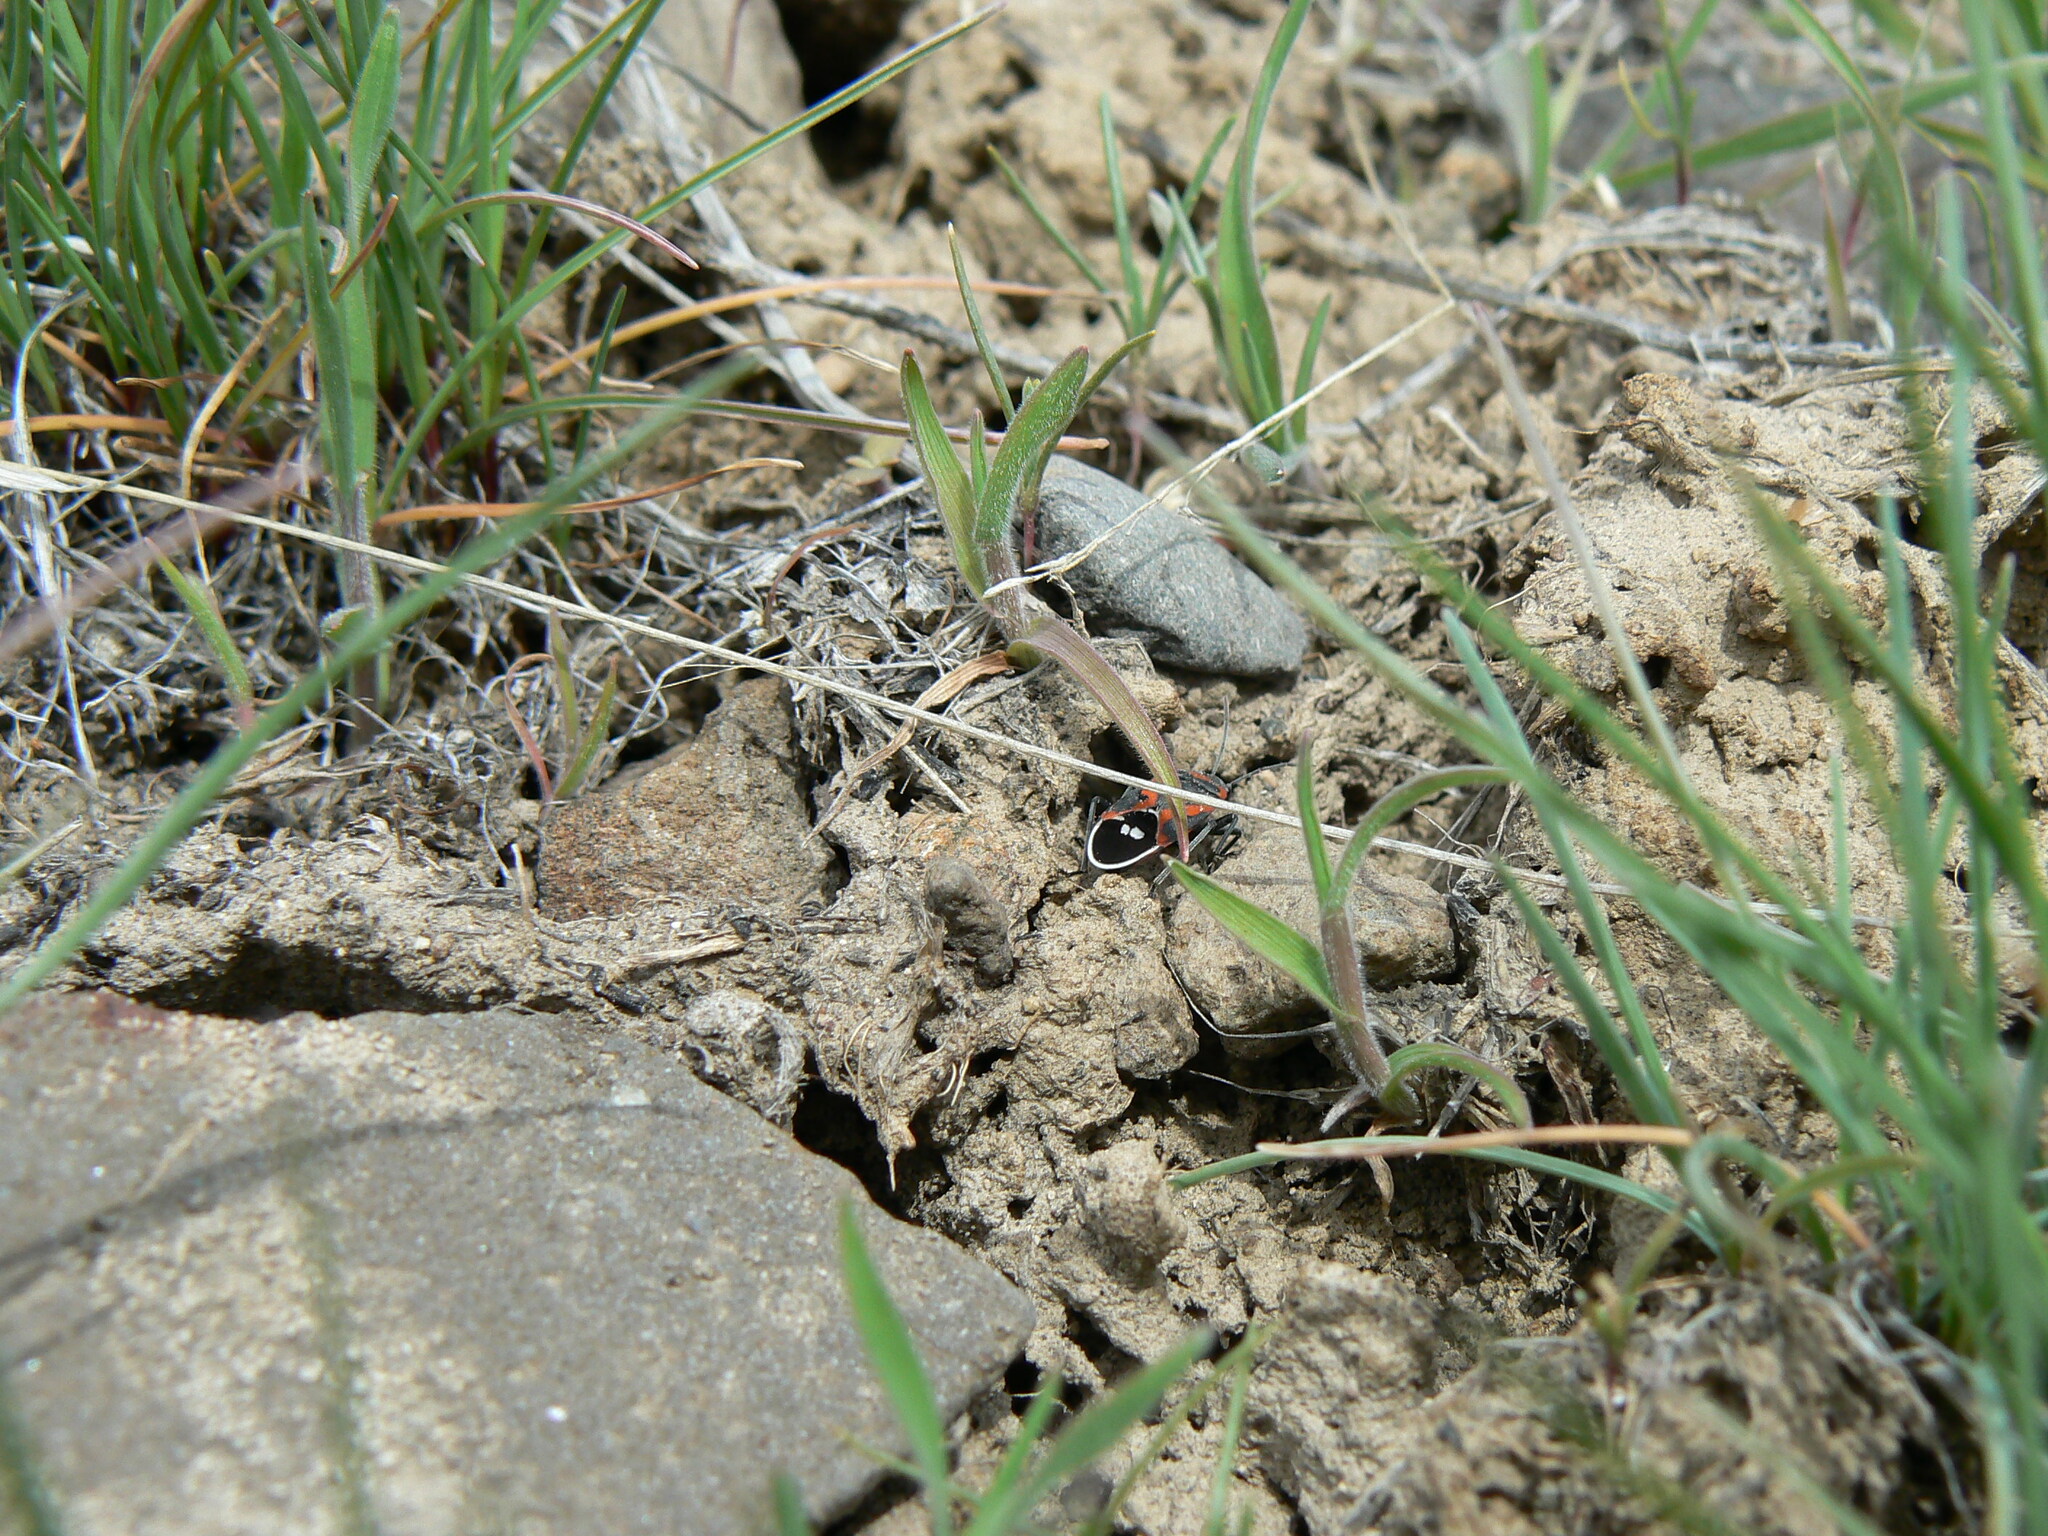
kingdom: Animalia
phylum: Arthropoda
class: Insecta
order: Hemiptera
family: Lygaeidae
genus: Lygaeus
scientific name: Lygaeus kalmii
